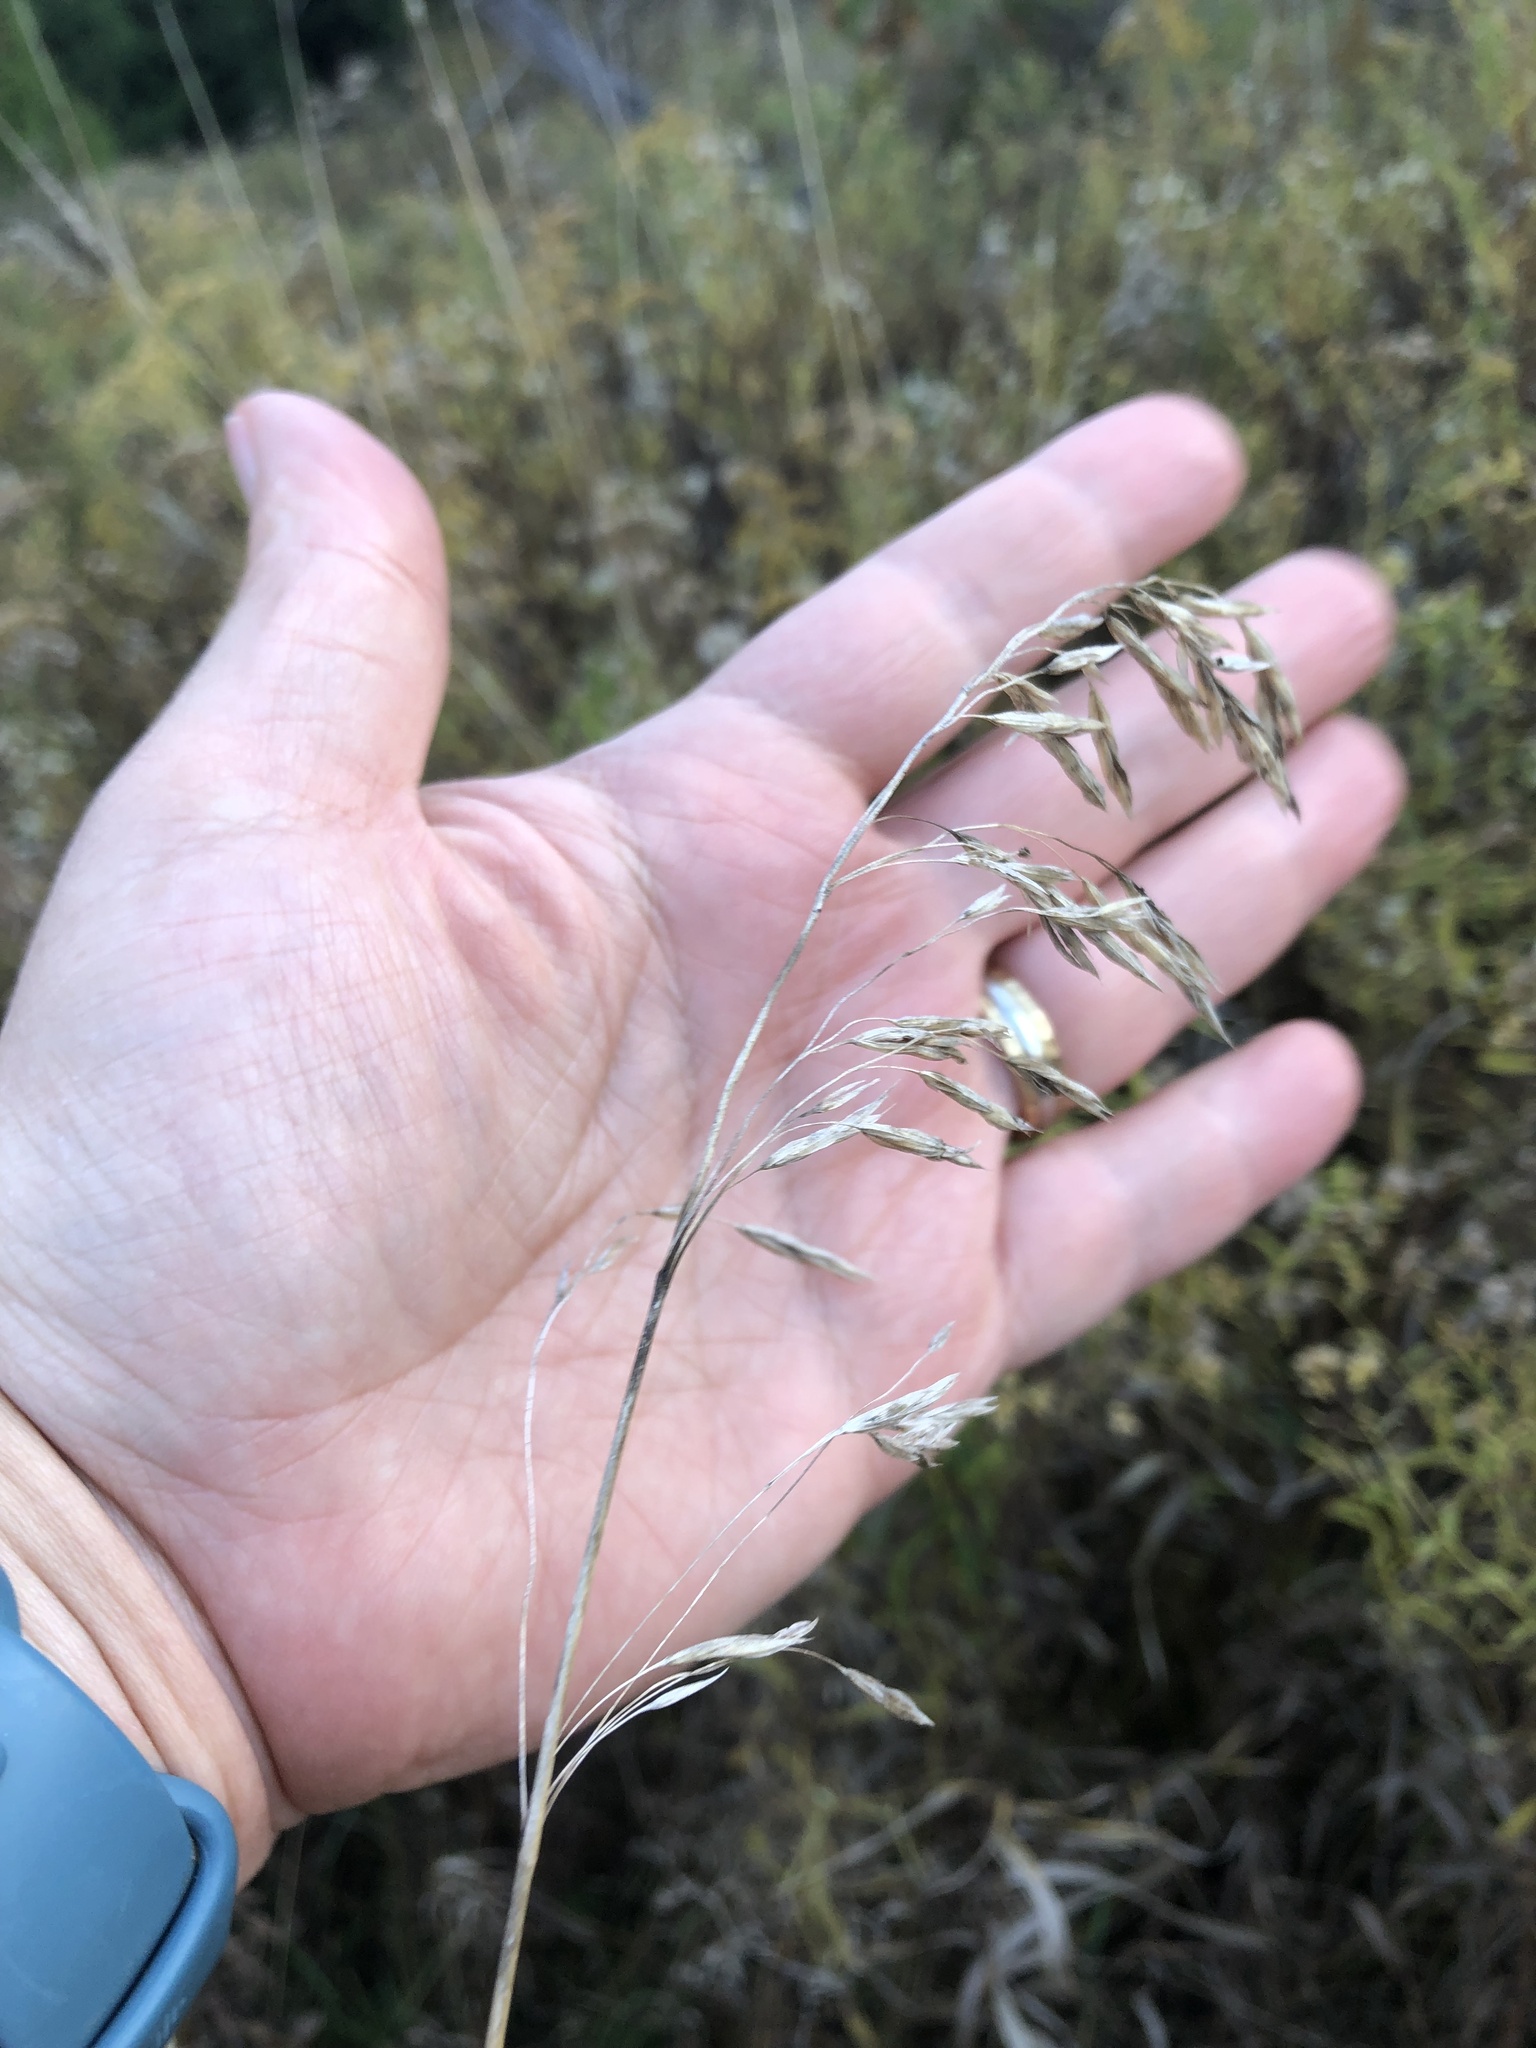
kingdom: Plantae
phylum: Tracheophyta
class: Liliopsida
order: Poales
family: Poaceae
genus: Bromus
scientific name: Bromus inermis
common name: Smooth brome
